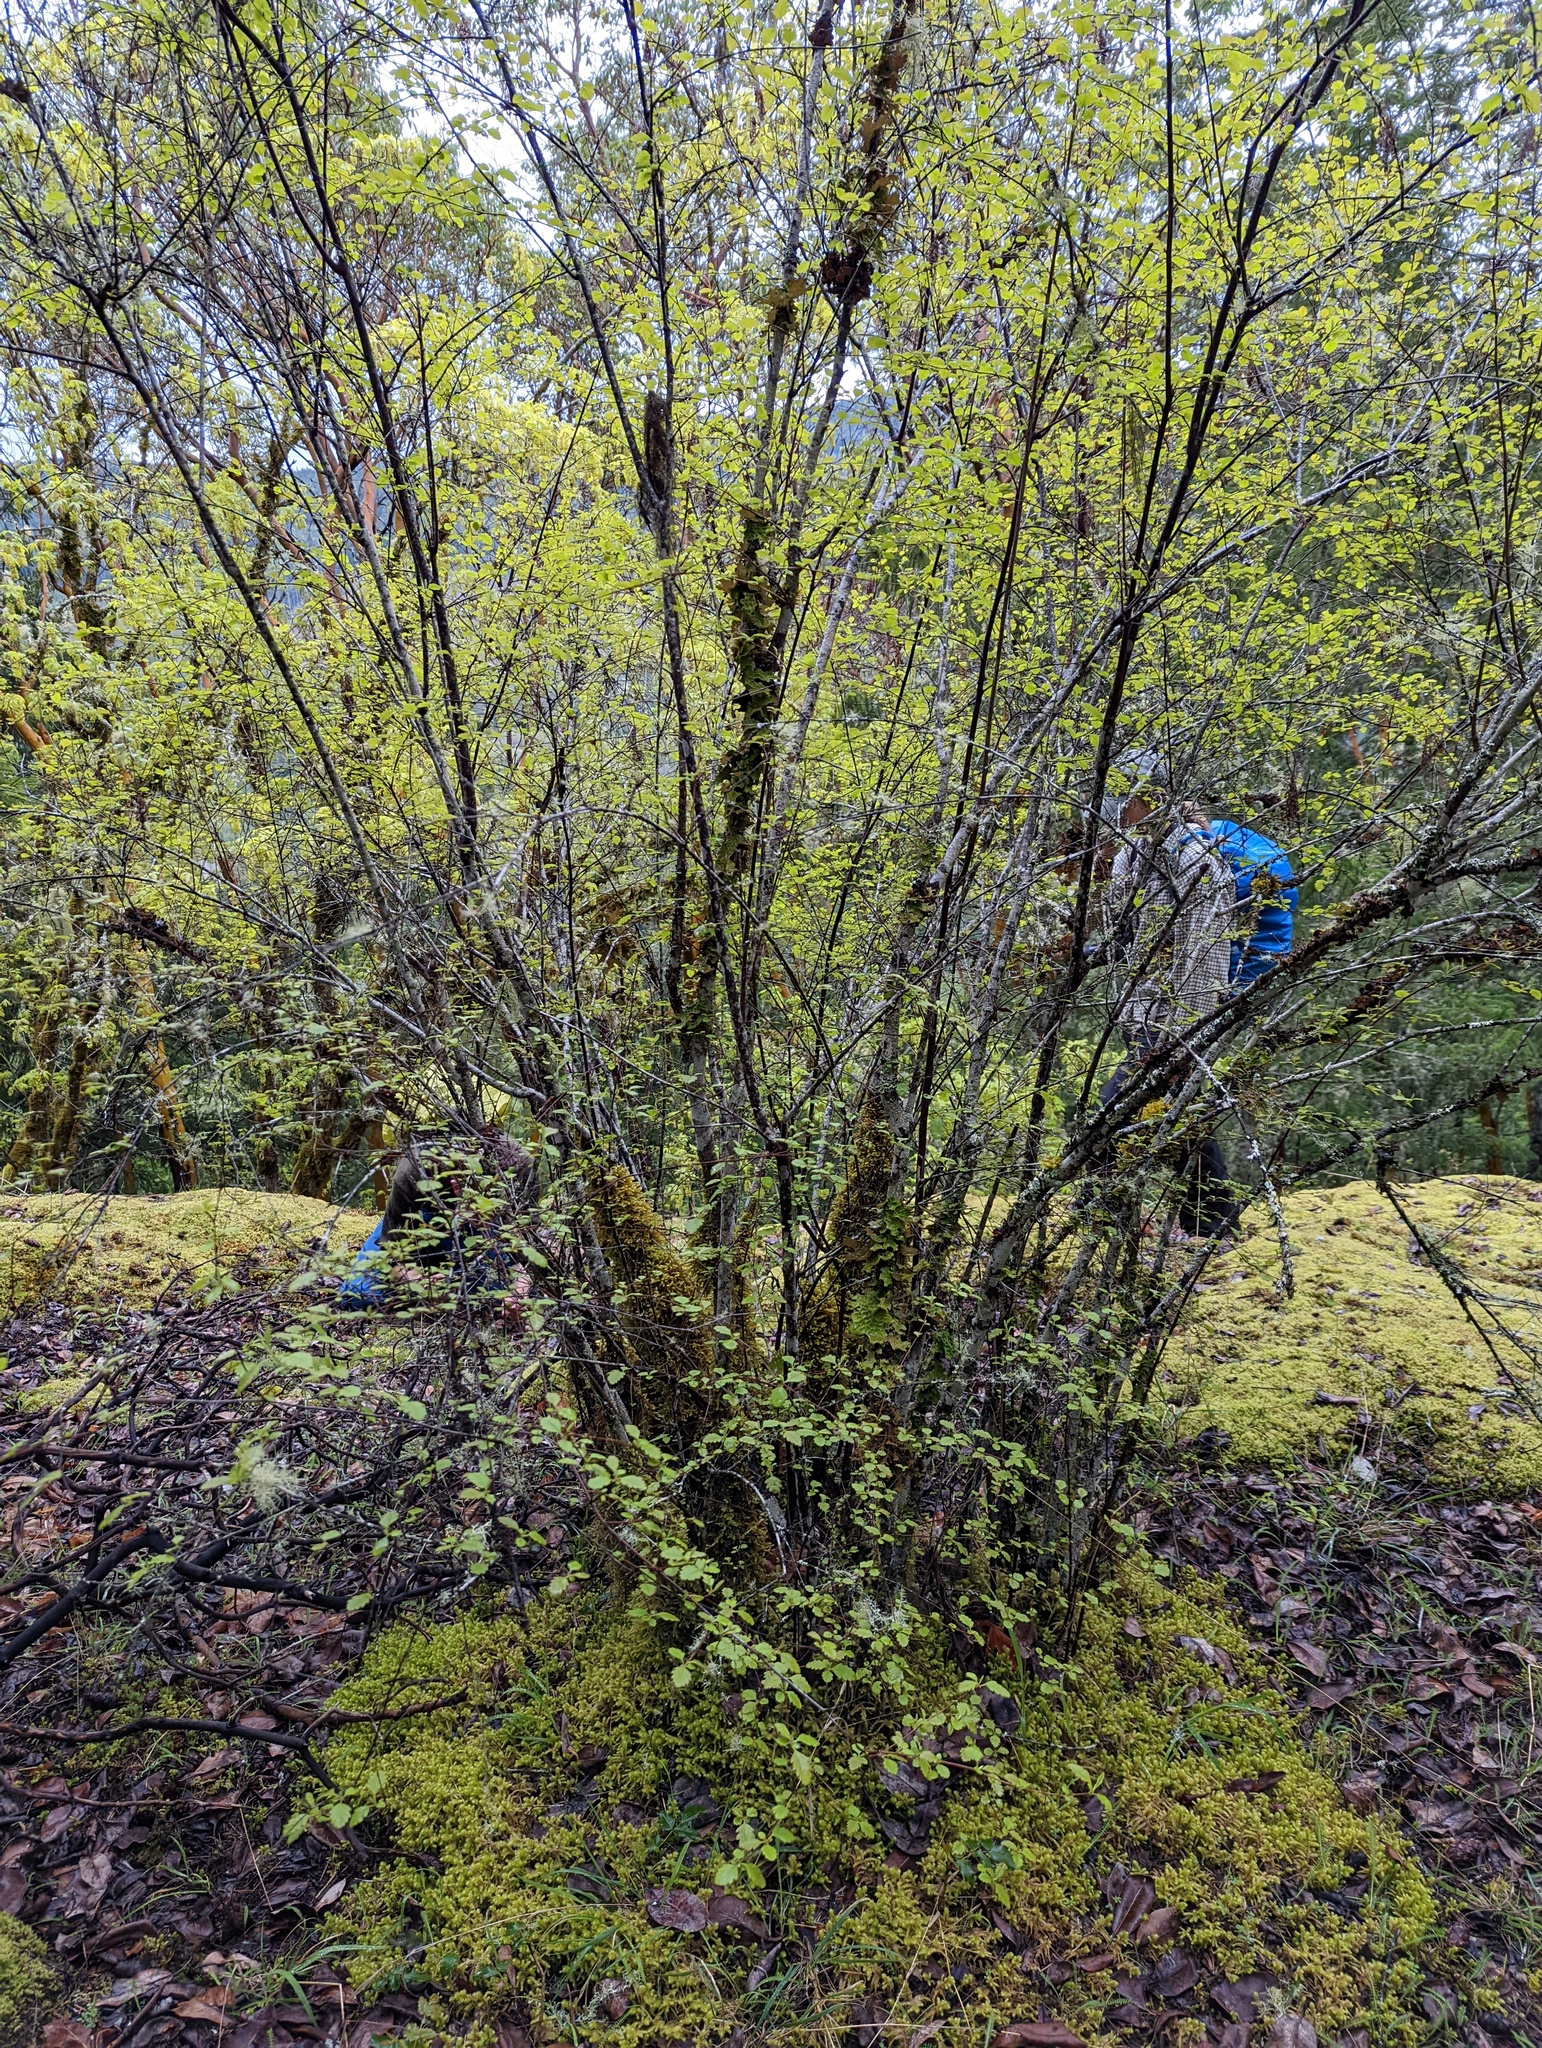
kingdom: Plantae
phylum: Tracheophyta
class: Magnoliopsida
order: Rosales
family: Rosaceae
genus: Holodiscus
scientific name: Holodiscus discolor
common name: Oceanspray
